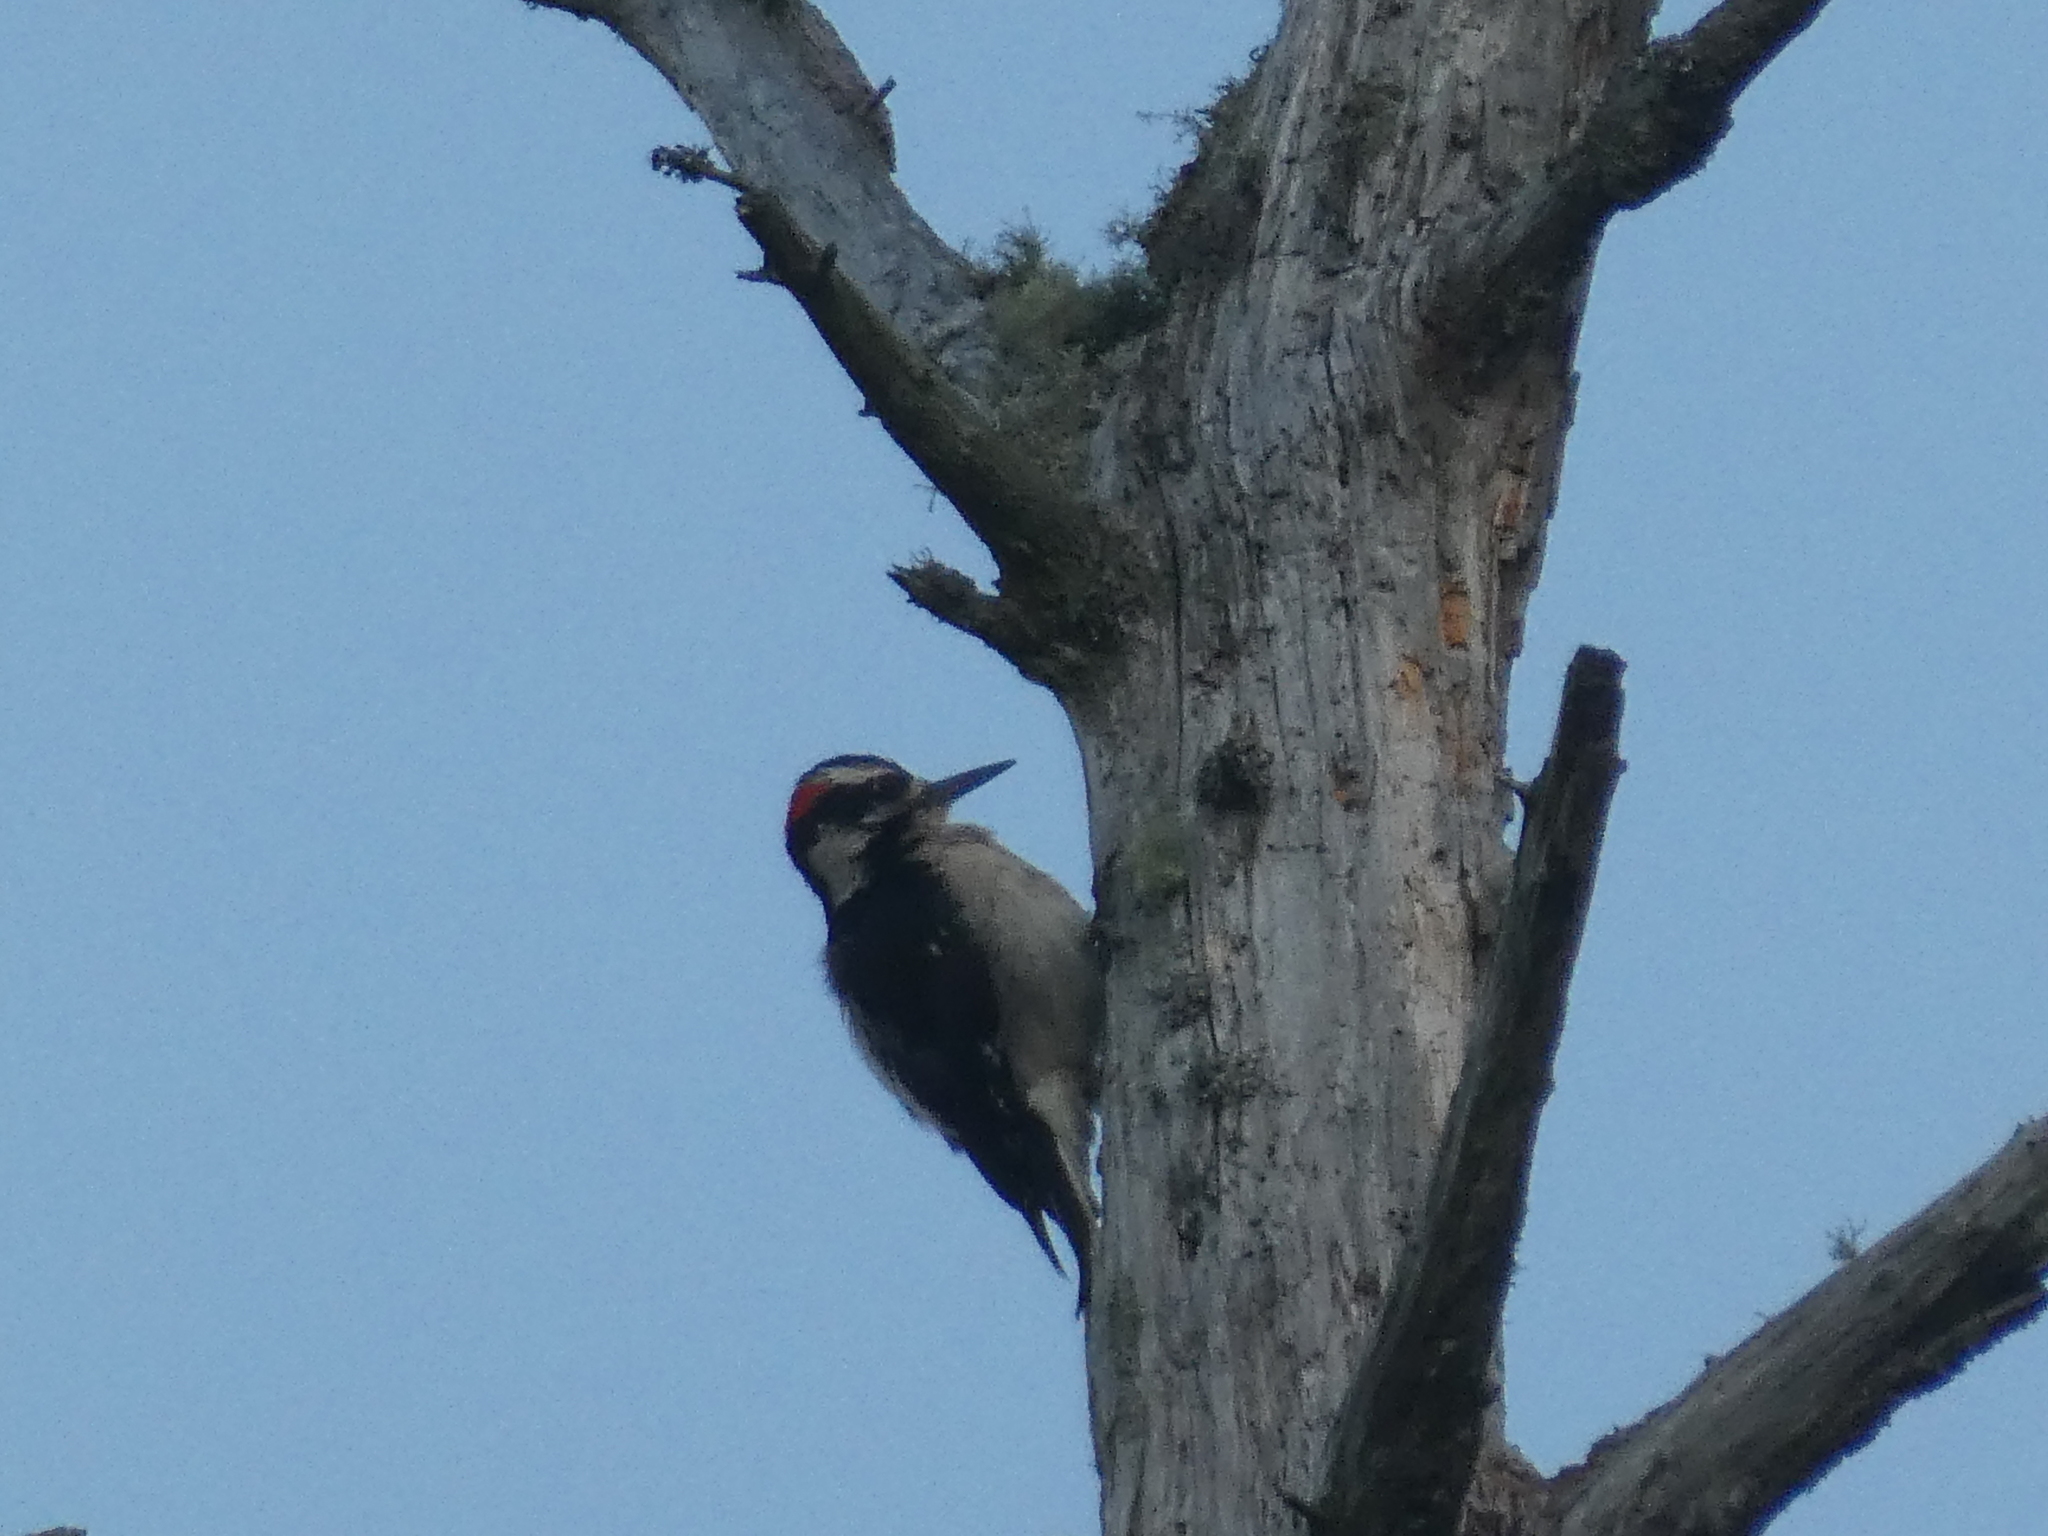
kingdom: Animalia
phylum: Chordata
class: Aves
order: Piciformes
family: Picidae
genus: Leuconotopicus
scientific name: Leuconotopicus villosus
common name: Hairy woodpecker
